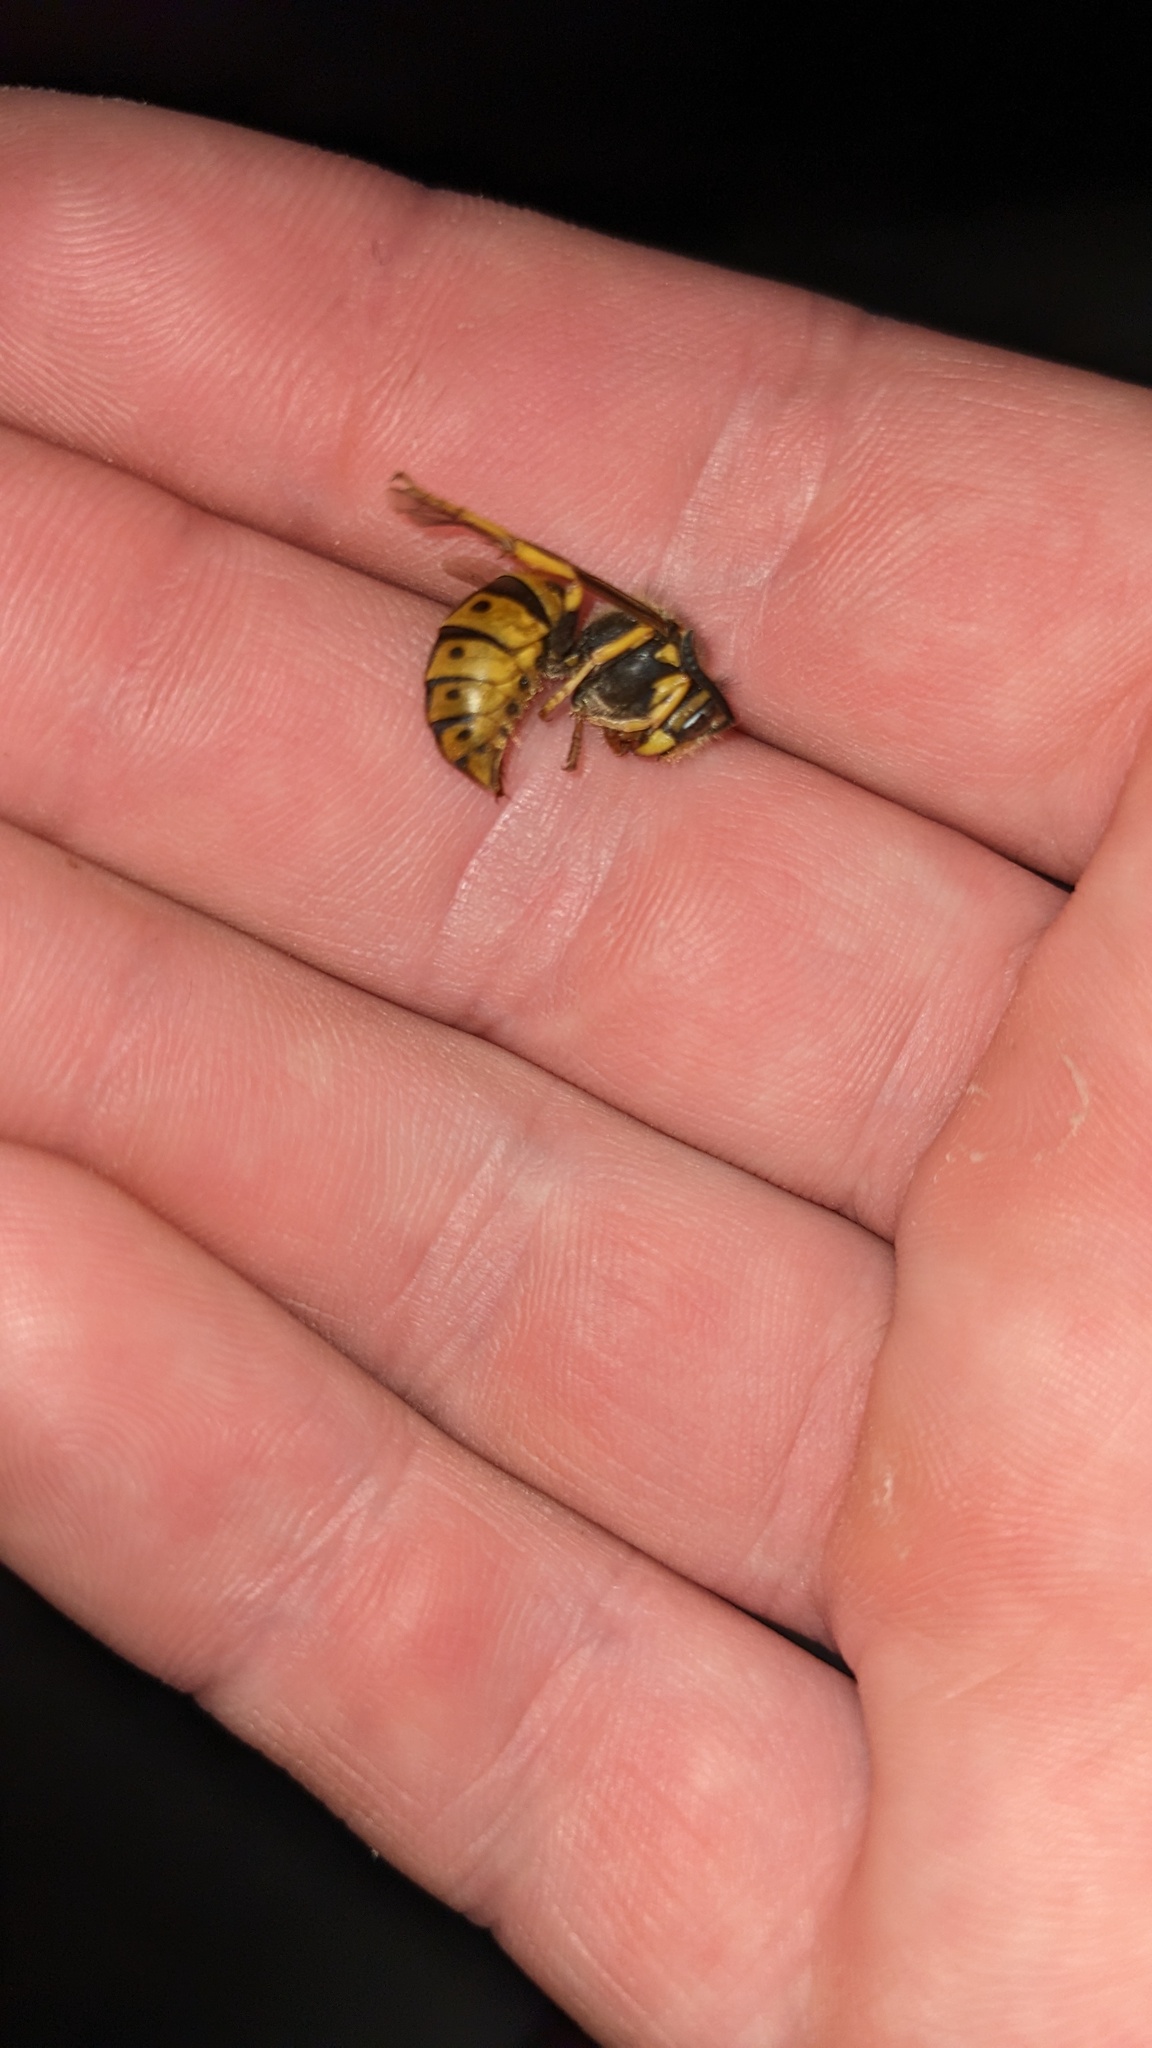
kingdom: Animalia
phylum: Arthropoda
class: Insecta
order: Hymenoptera
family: Vespidae
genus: Vespula
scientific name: Vespula germanica
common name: German wasp
